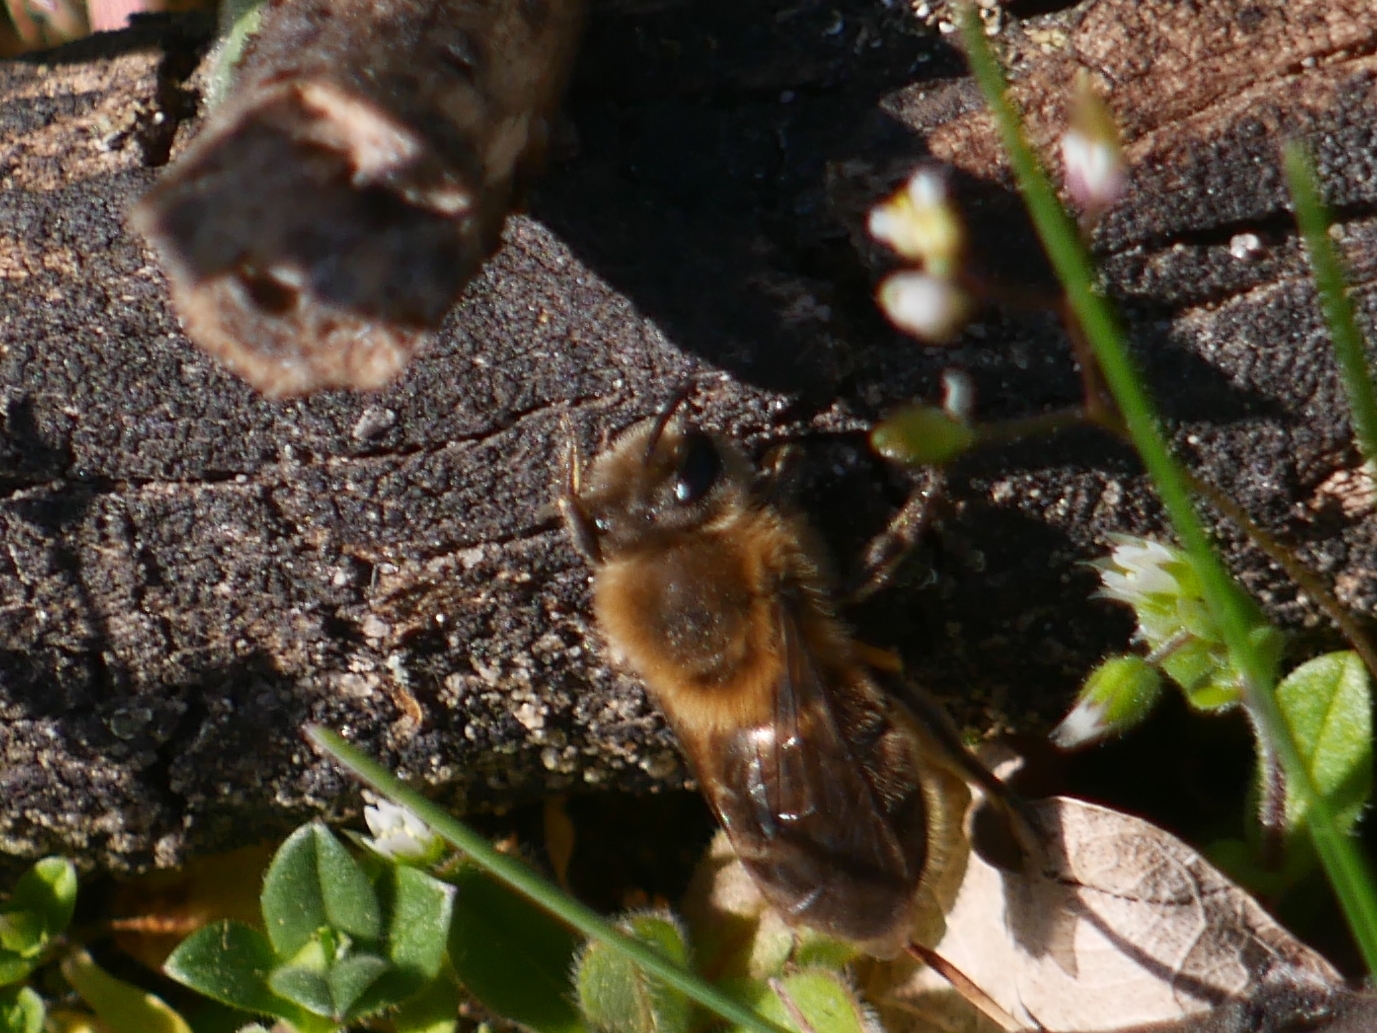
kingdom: Animalia
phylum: Arthropoda
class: Insecta
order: Hymenoptera
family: Colletidae
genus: Colletes
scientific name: Colletes cunicularius
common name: Early colletes
